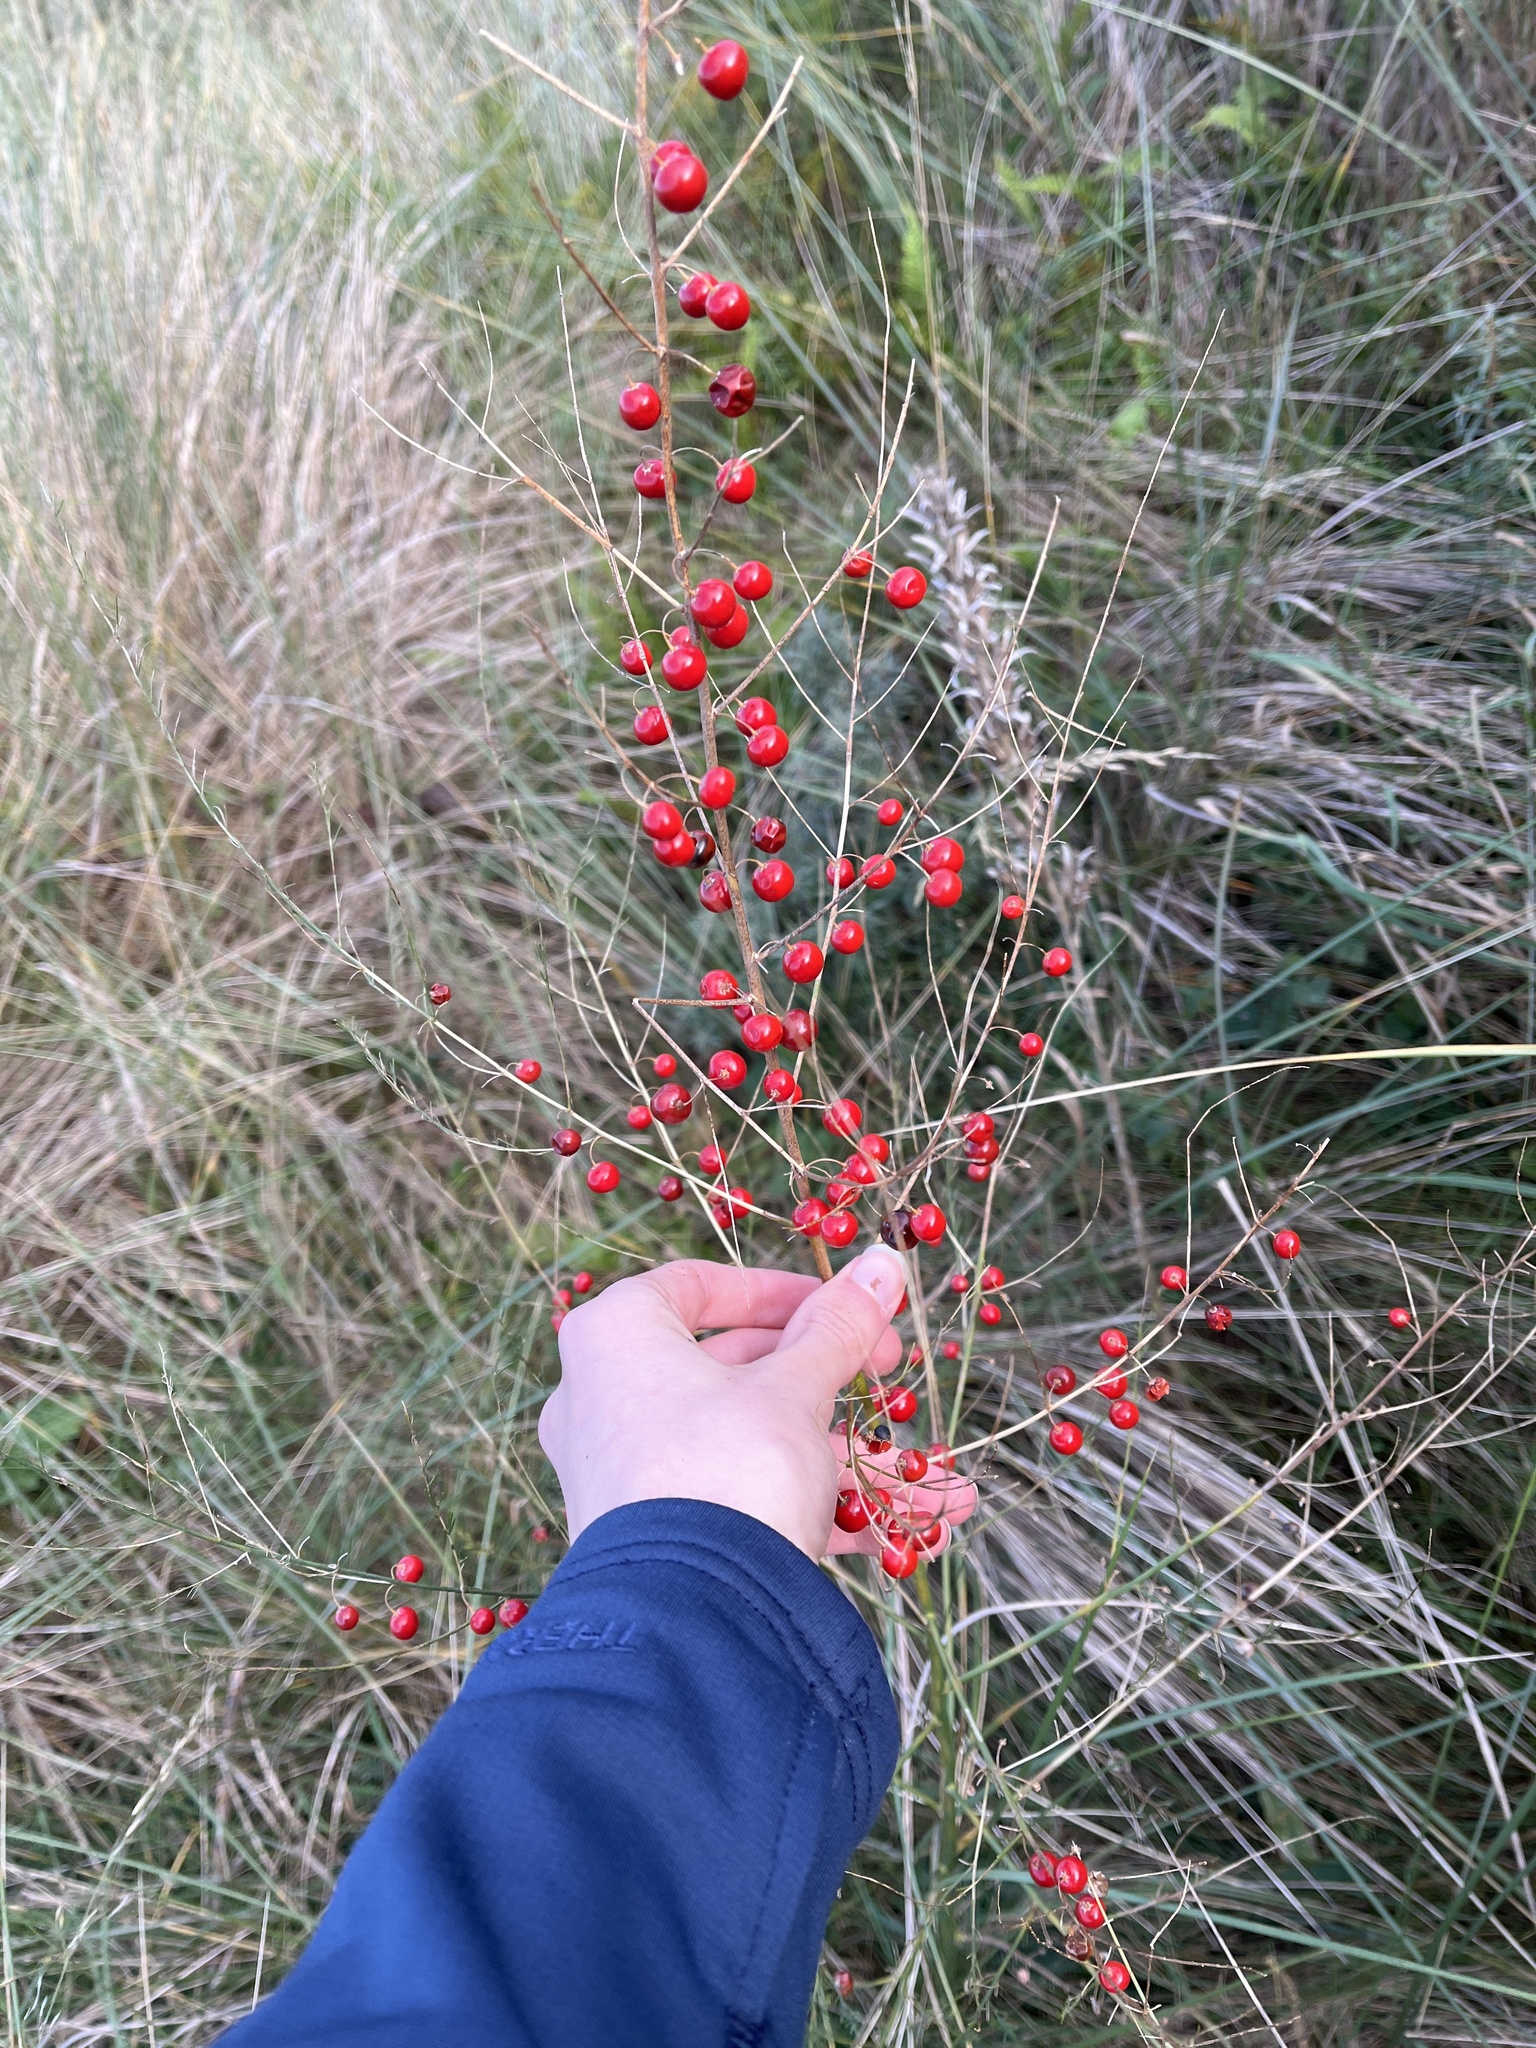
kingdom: Plantae
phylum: Tracheophyta
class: Liliopsida
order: Asparagales
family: Asparagaceae
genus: Asparagus
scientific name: Asparagus officinalis
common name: Garden asparagus
